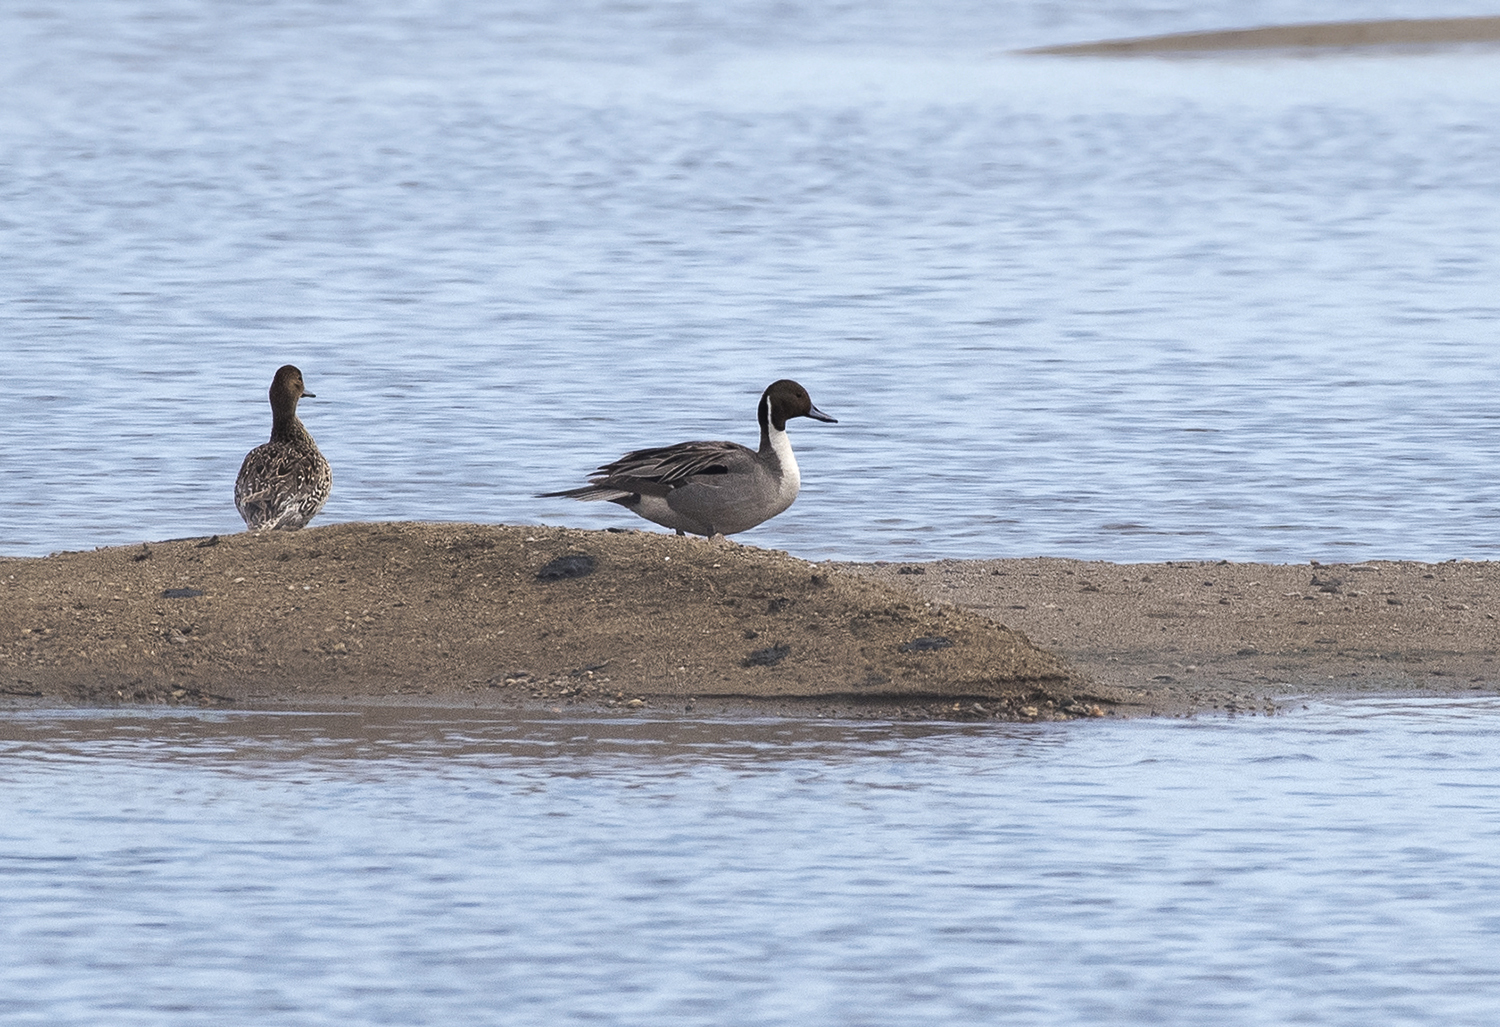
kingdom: Animalia
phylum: Chordata
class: Aves
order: Anseriformes
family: Anatidae
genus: Anas
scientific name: Anas acuta
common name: Northern pintail
